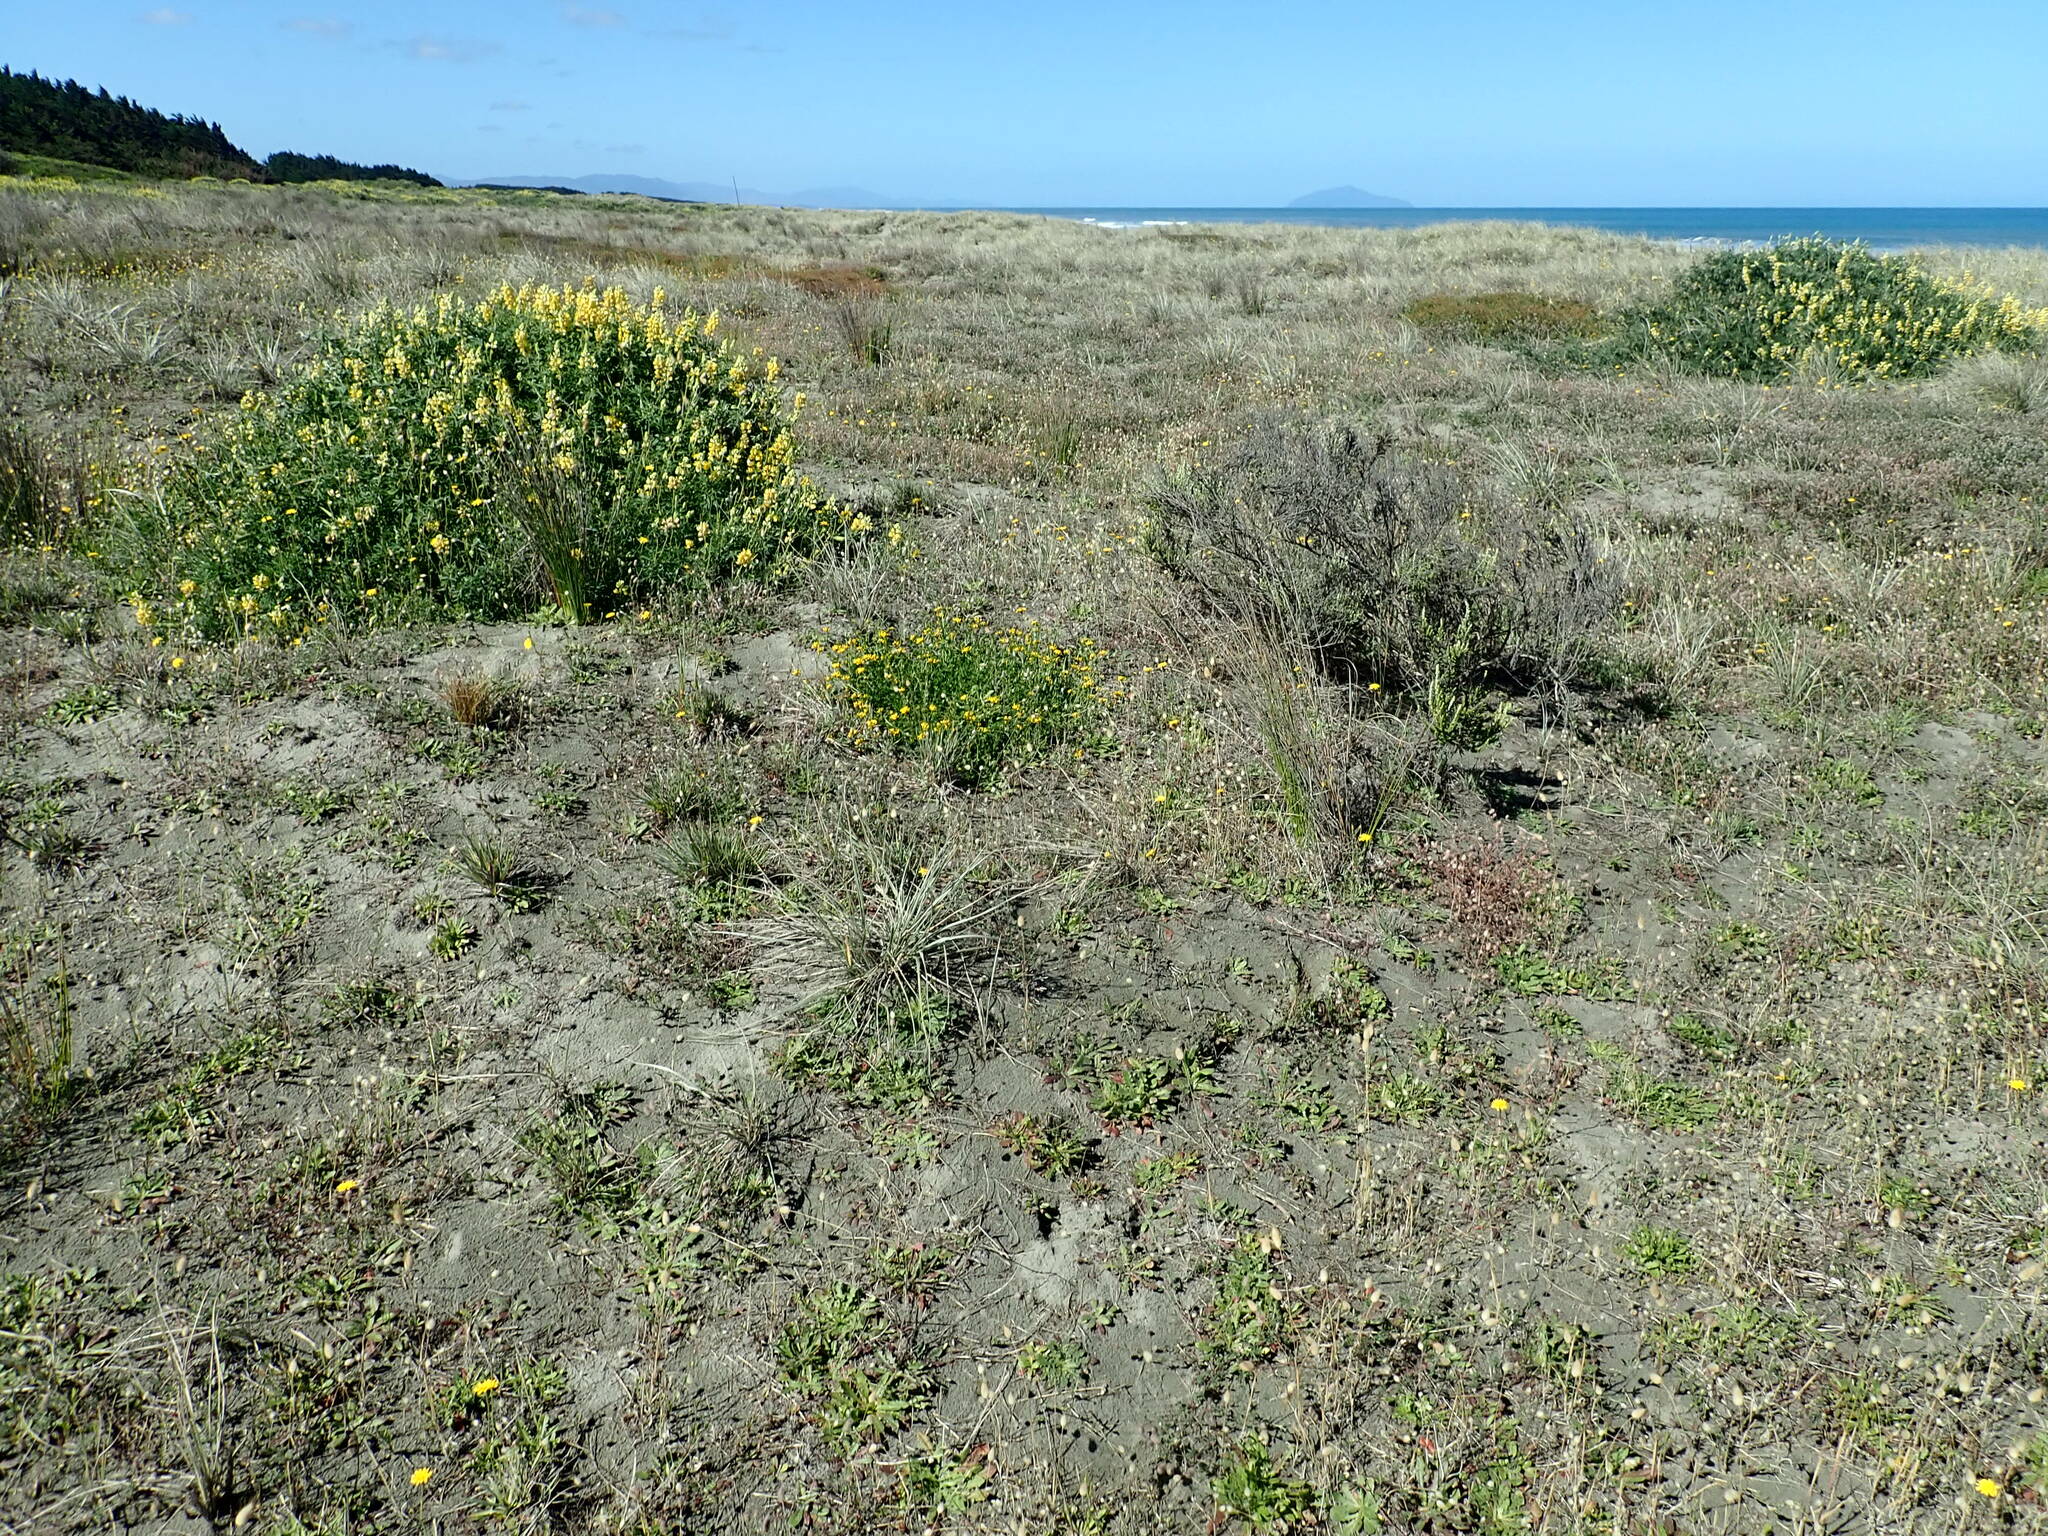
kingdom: Plantae
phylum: Tracheophyta
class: Magnoliopsida
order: Fabales
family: Fabaceae
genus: Lotus
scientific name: Lotus pedunculatus
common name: Greater birdsfoot-trefoil
